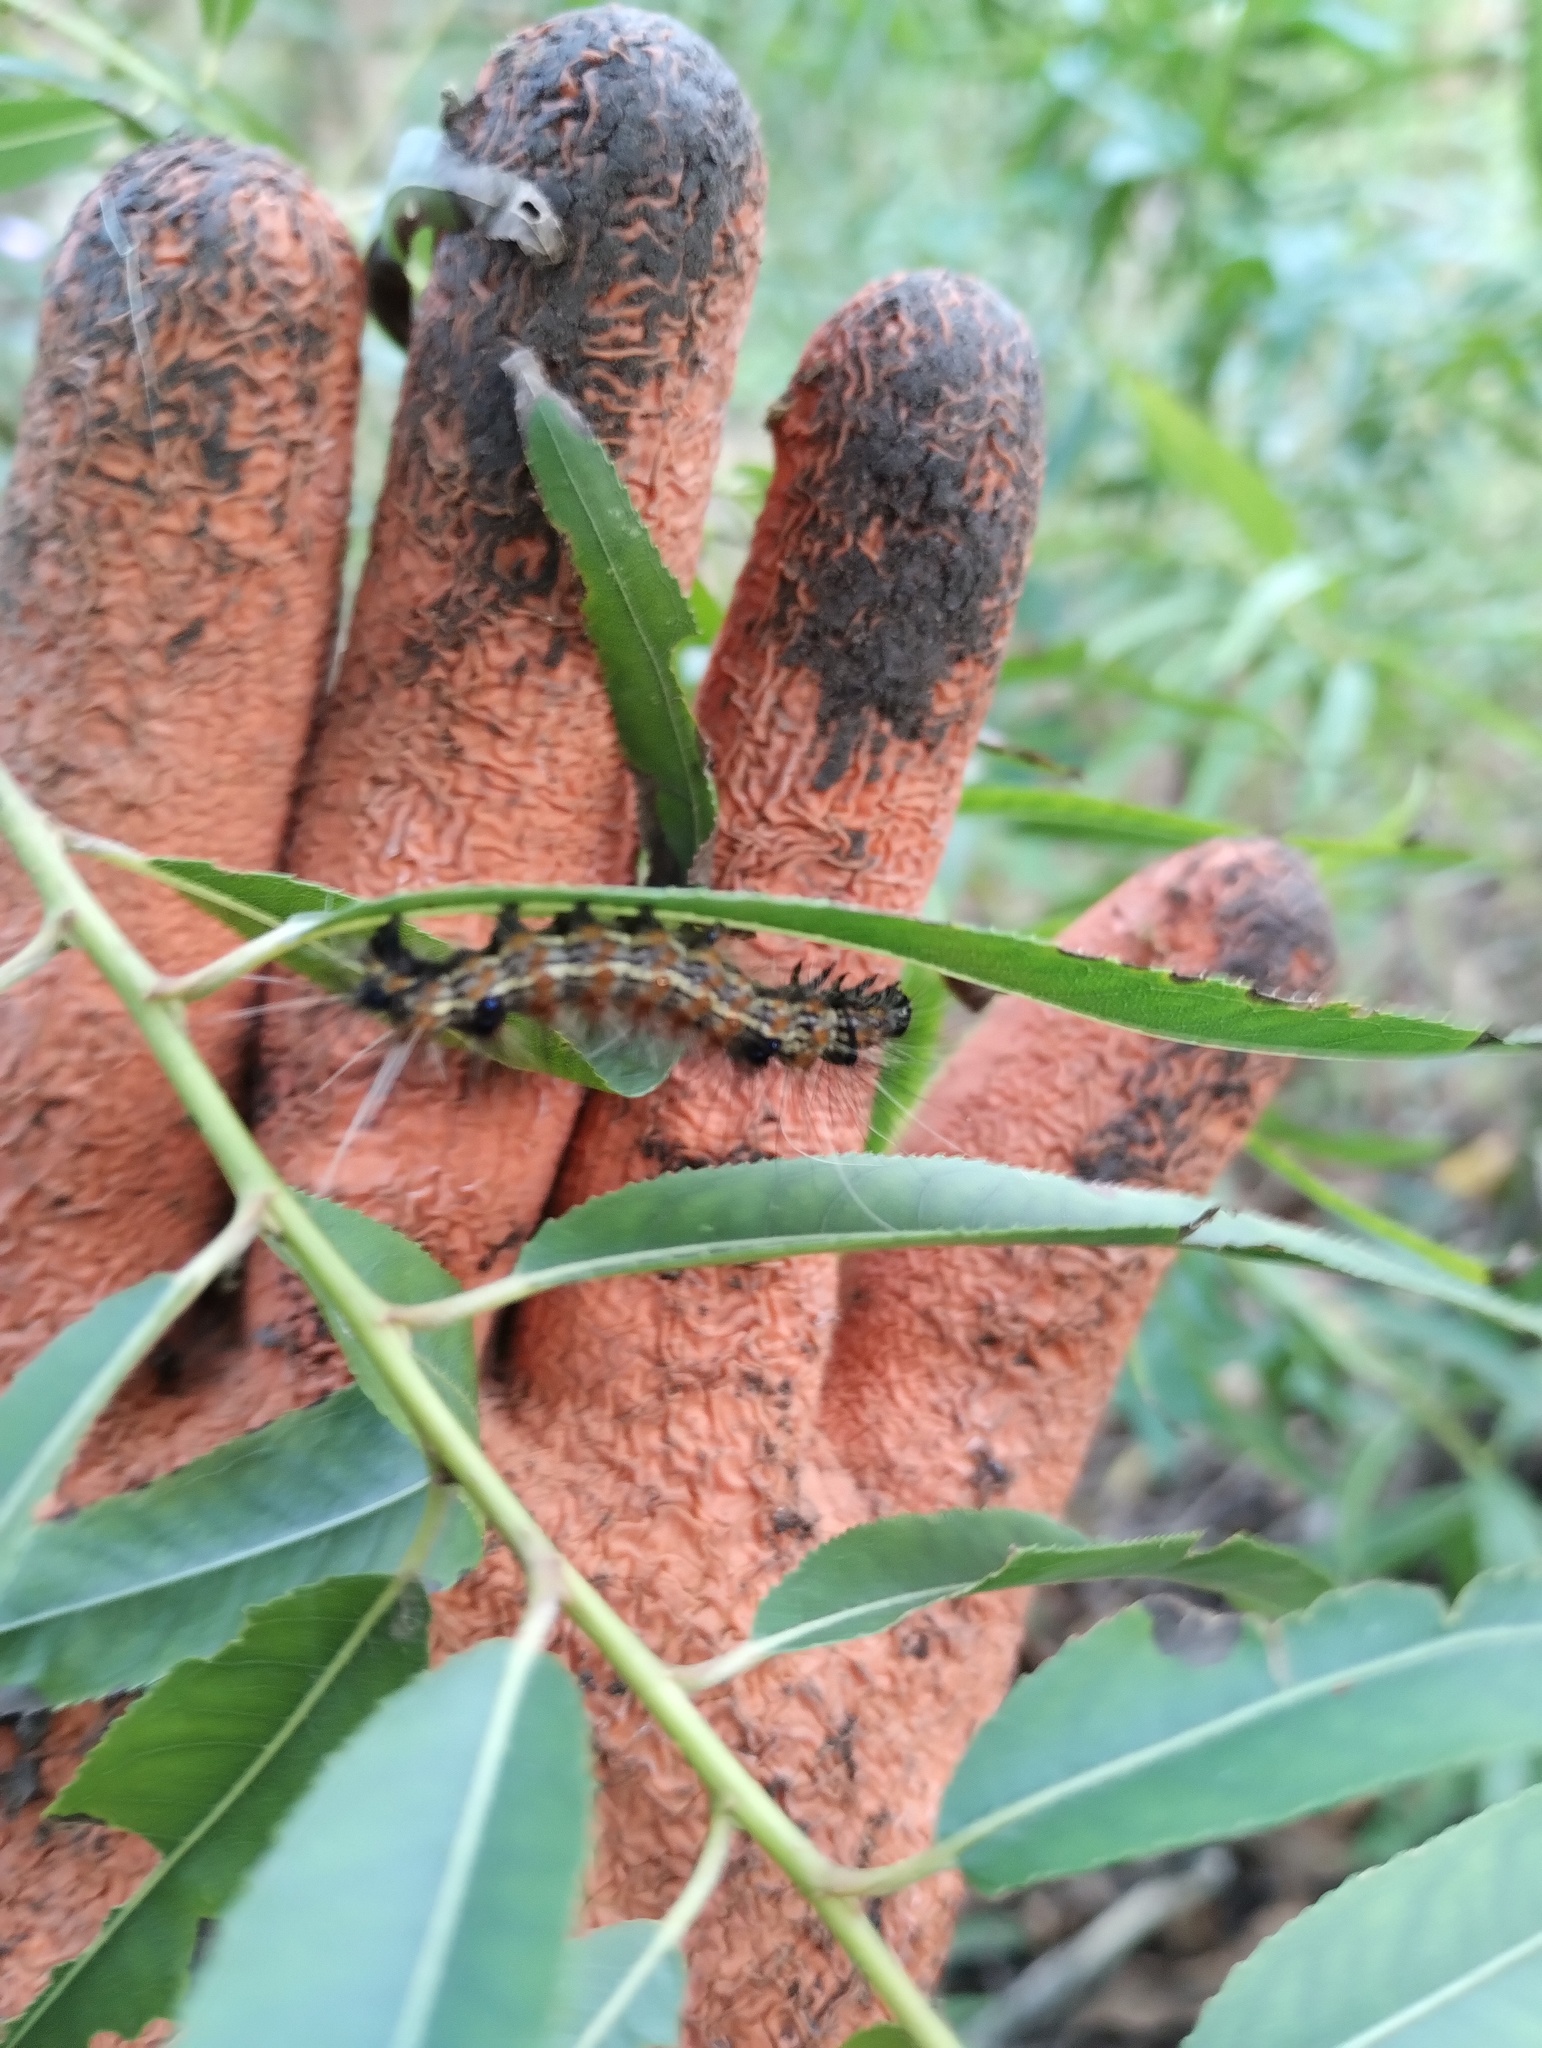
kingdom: Animalia
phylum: Arthropoda
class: Insecta
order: Lepidoptera
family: Erebidae
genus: Dysschema
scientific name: Dysschema sacrifica
